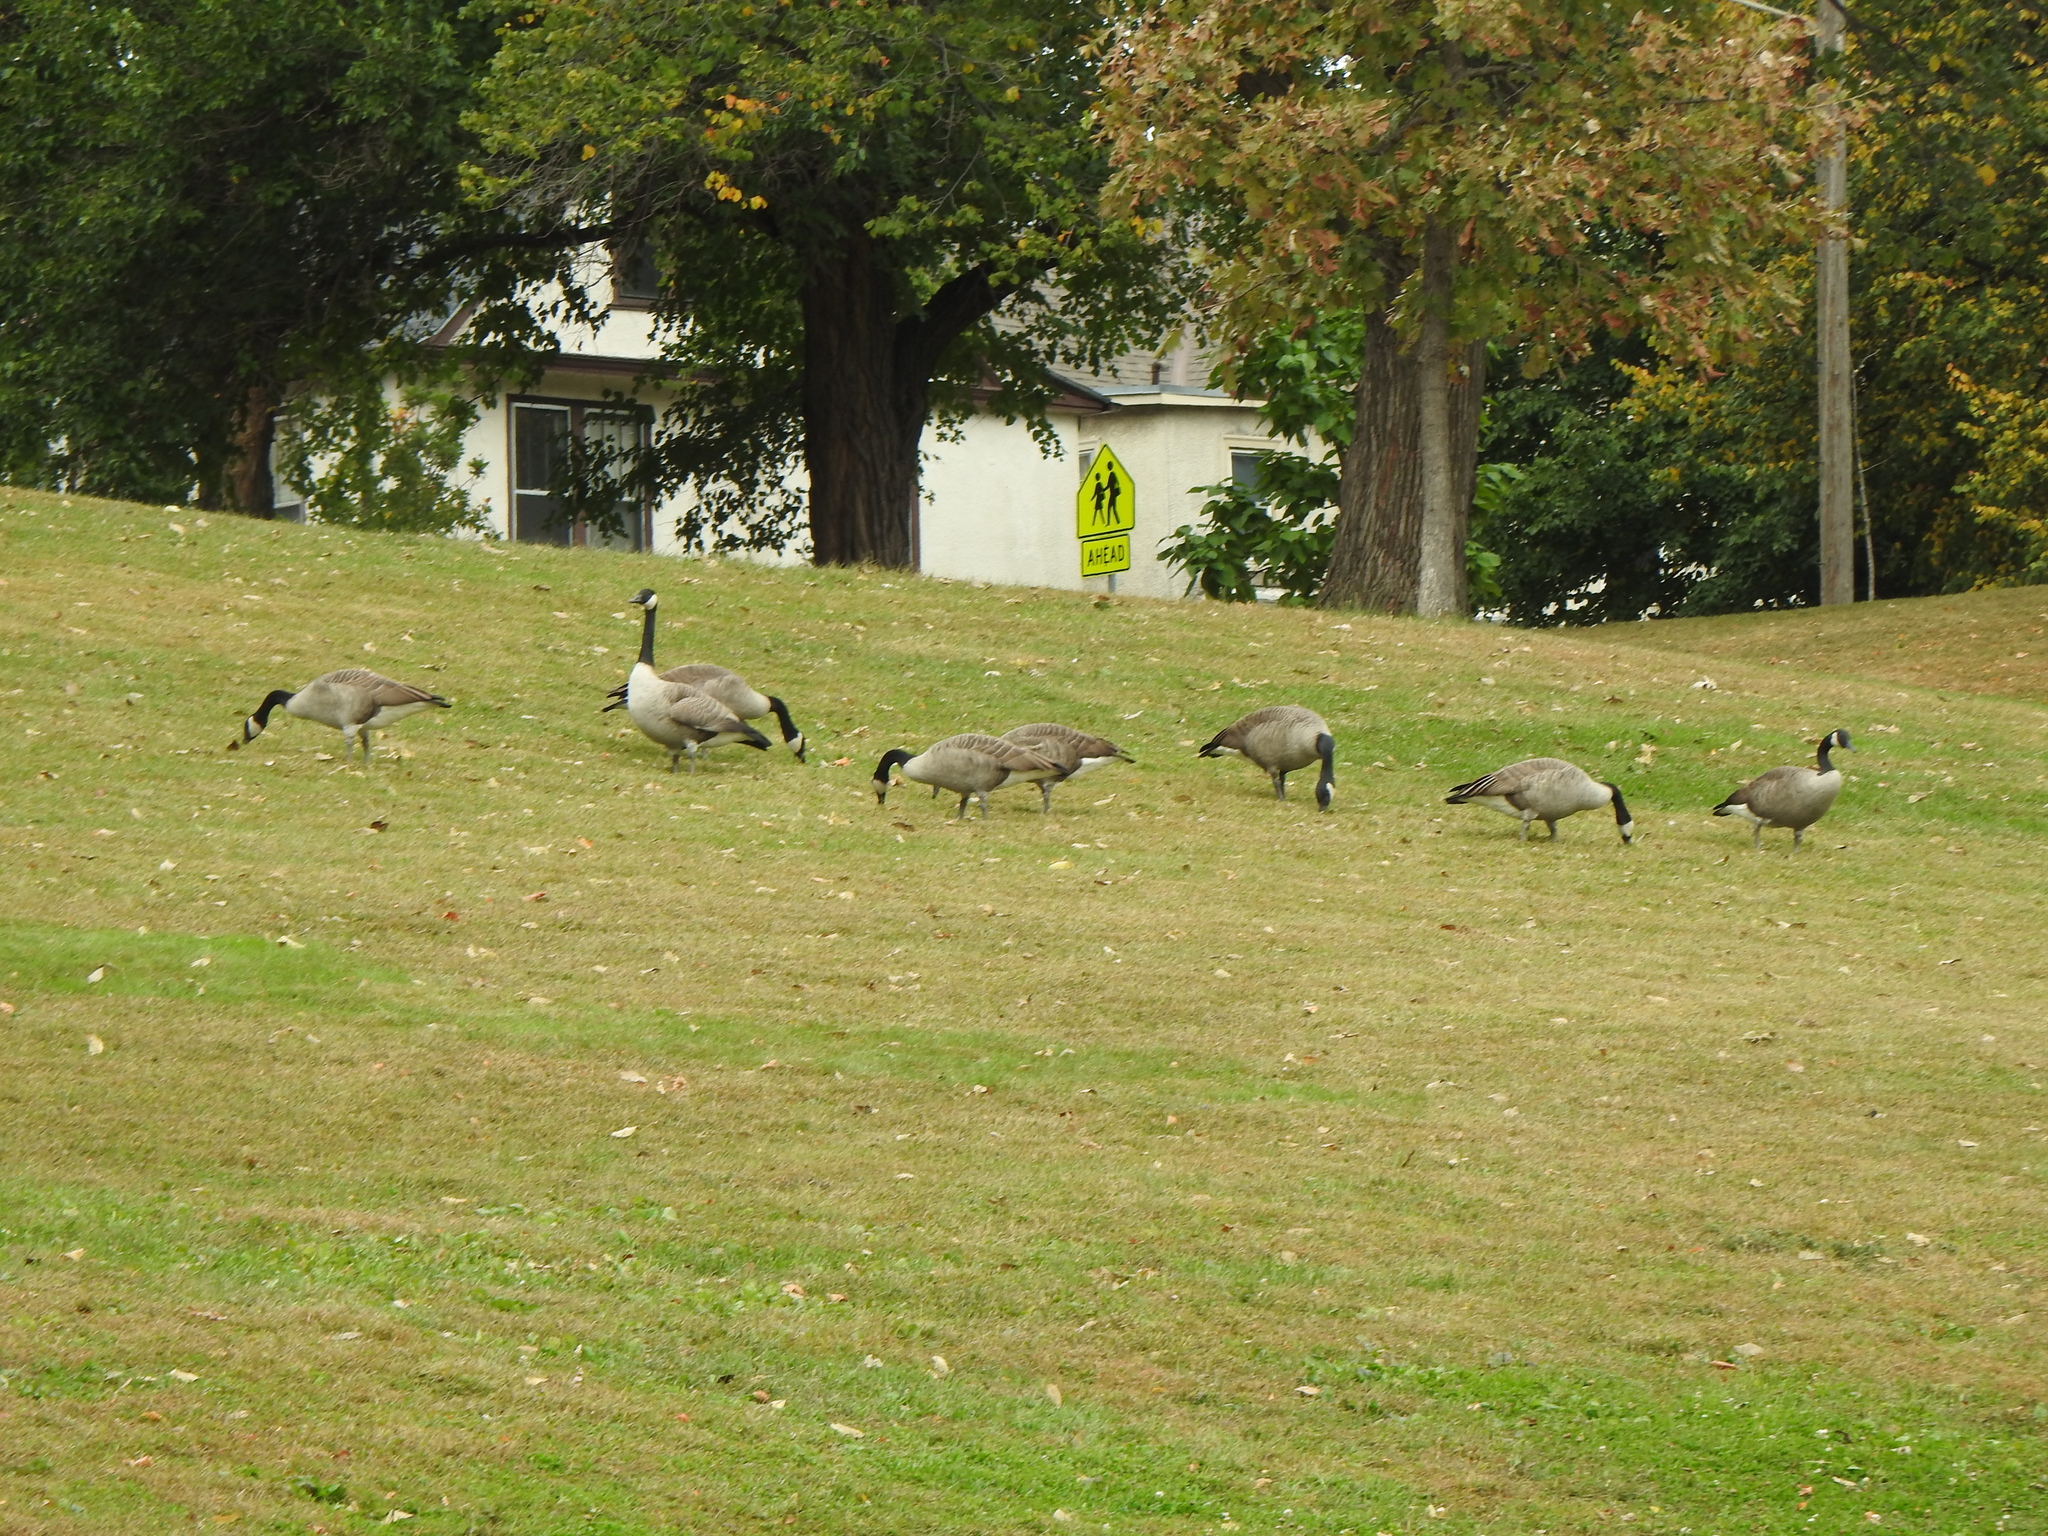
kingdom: Animalia
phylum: Chordata
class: Aves
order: Anseriformes
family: Anatidae
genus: Branta
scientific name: Branta canadensis
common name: Canada goose
